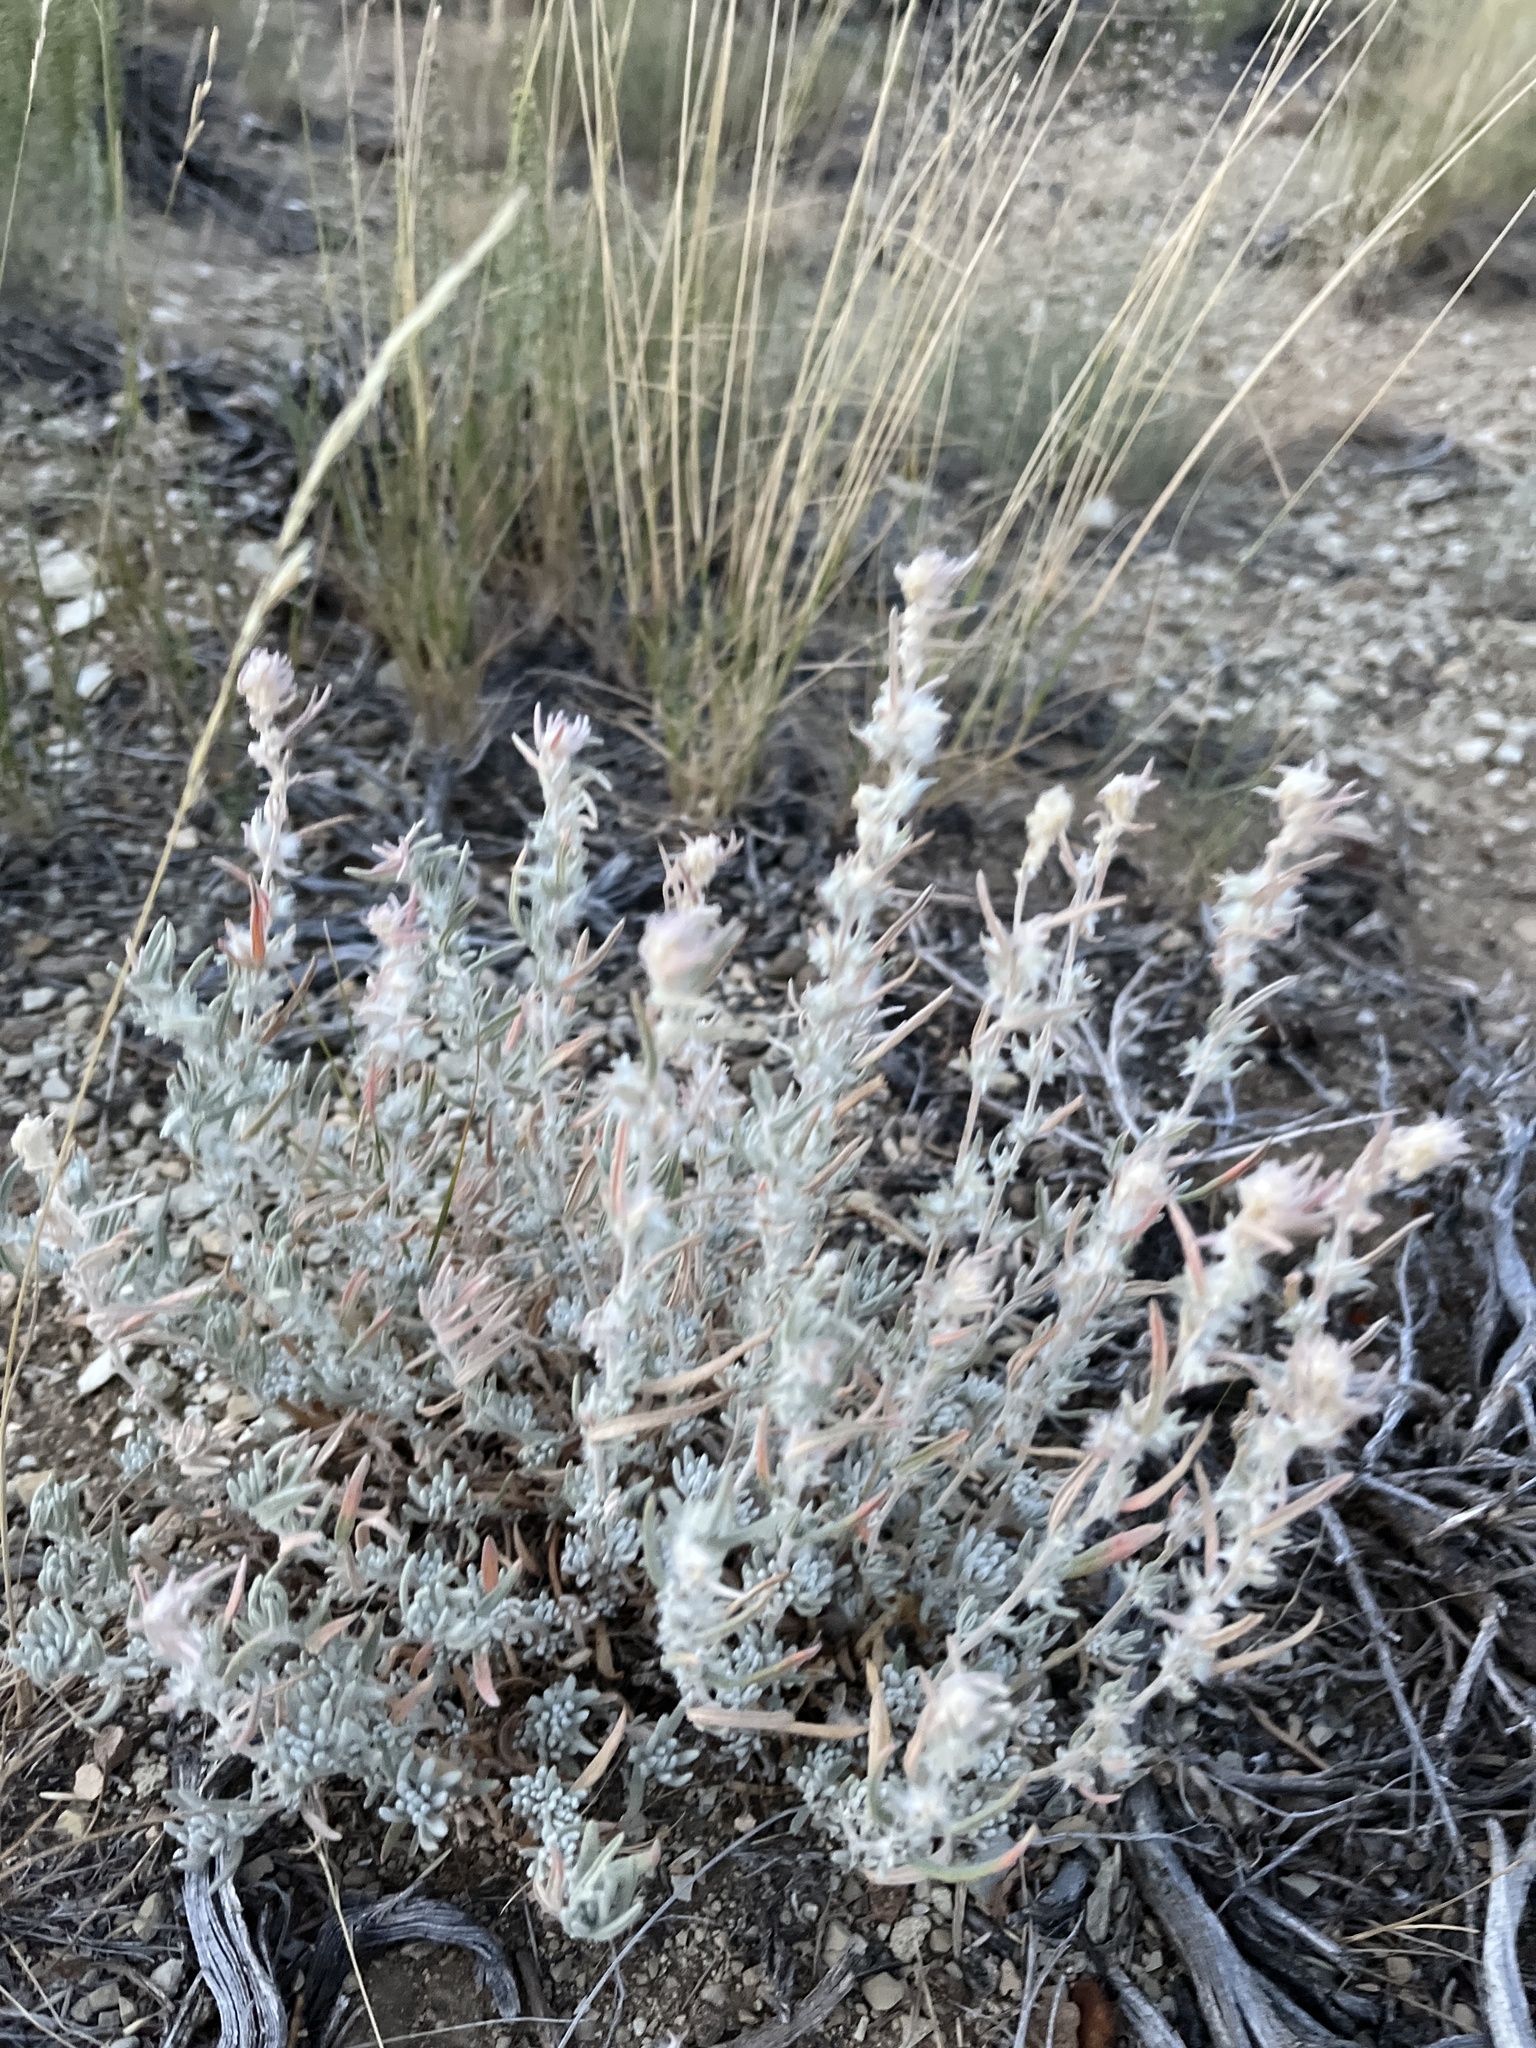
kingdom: Plantae
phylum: Tracheophyta
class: Magnoliopsida
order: Caryophyllales
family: Amaranthaceae
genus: Krascheninnikovia
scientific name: Krascheninnikovia lanata
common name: Winterfat
